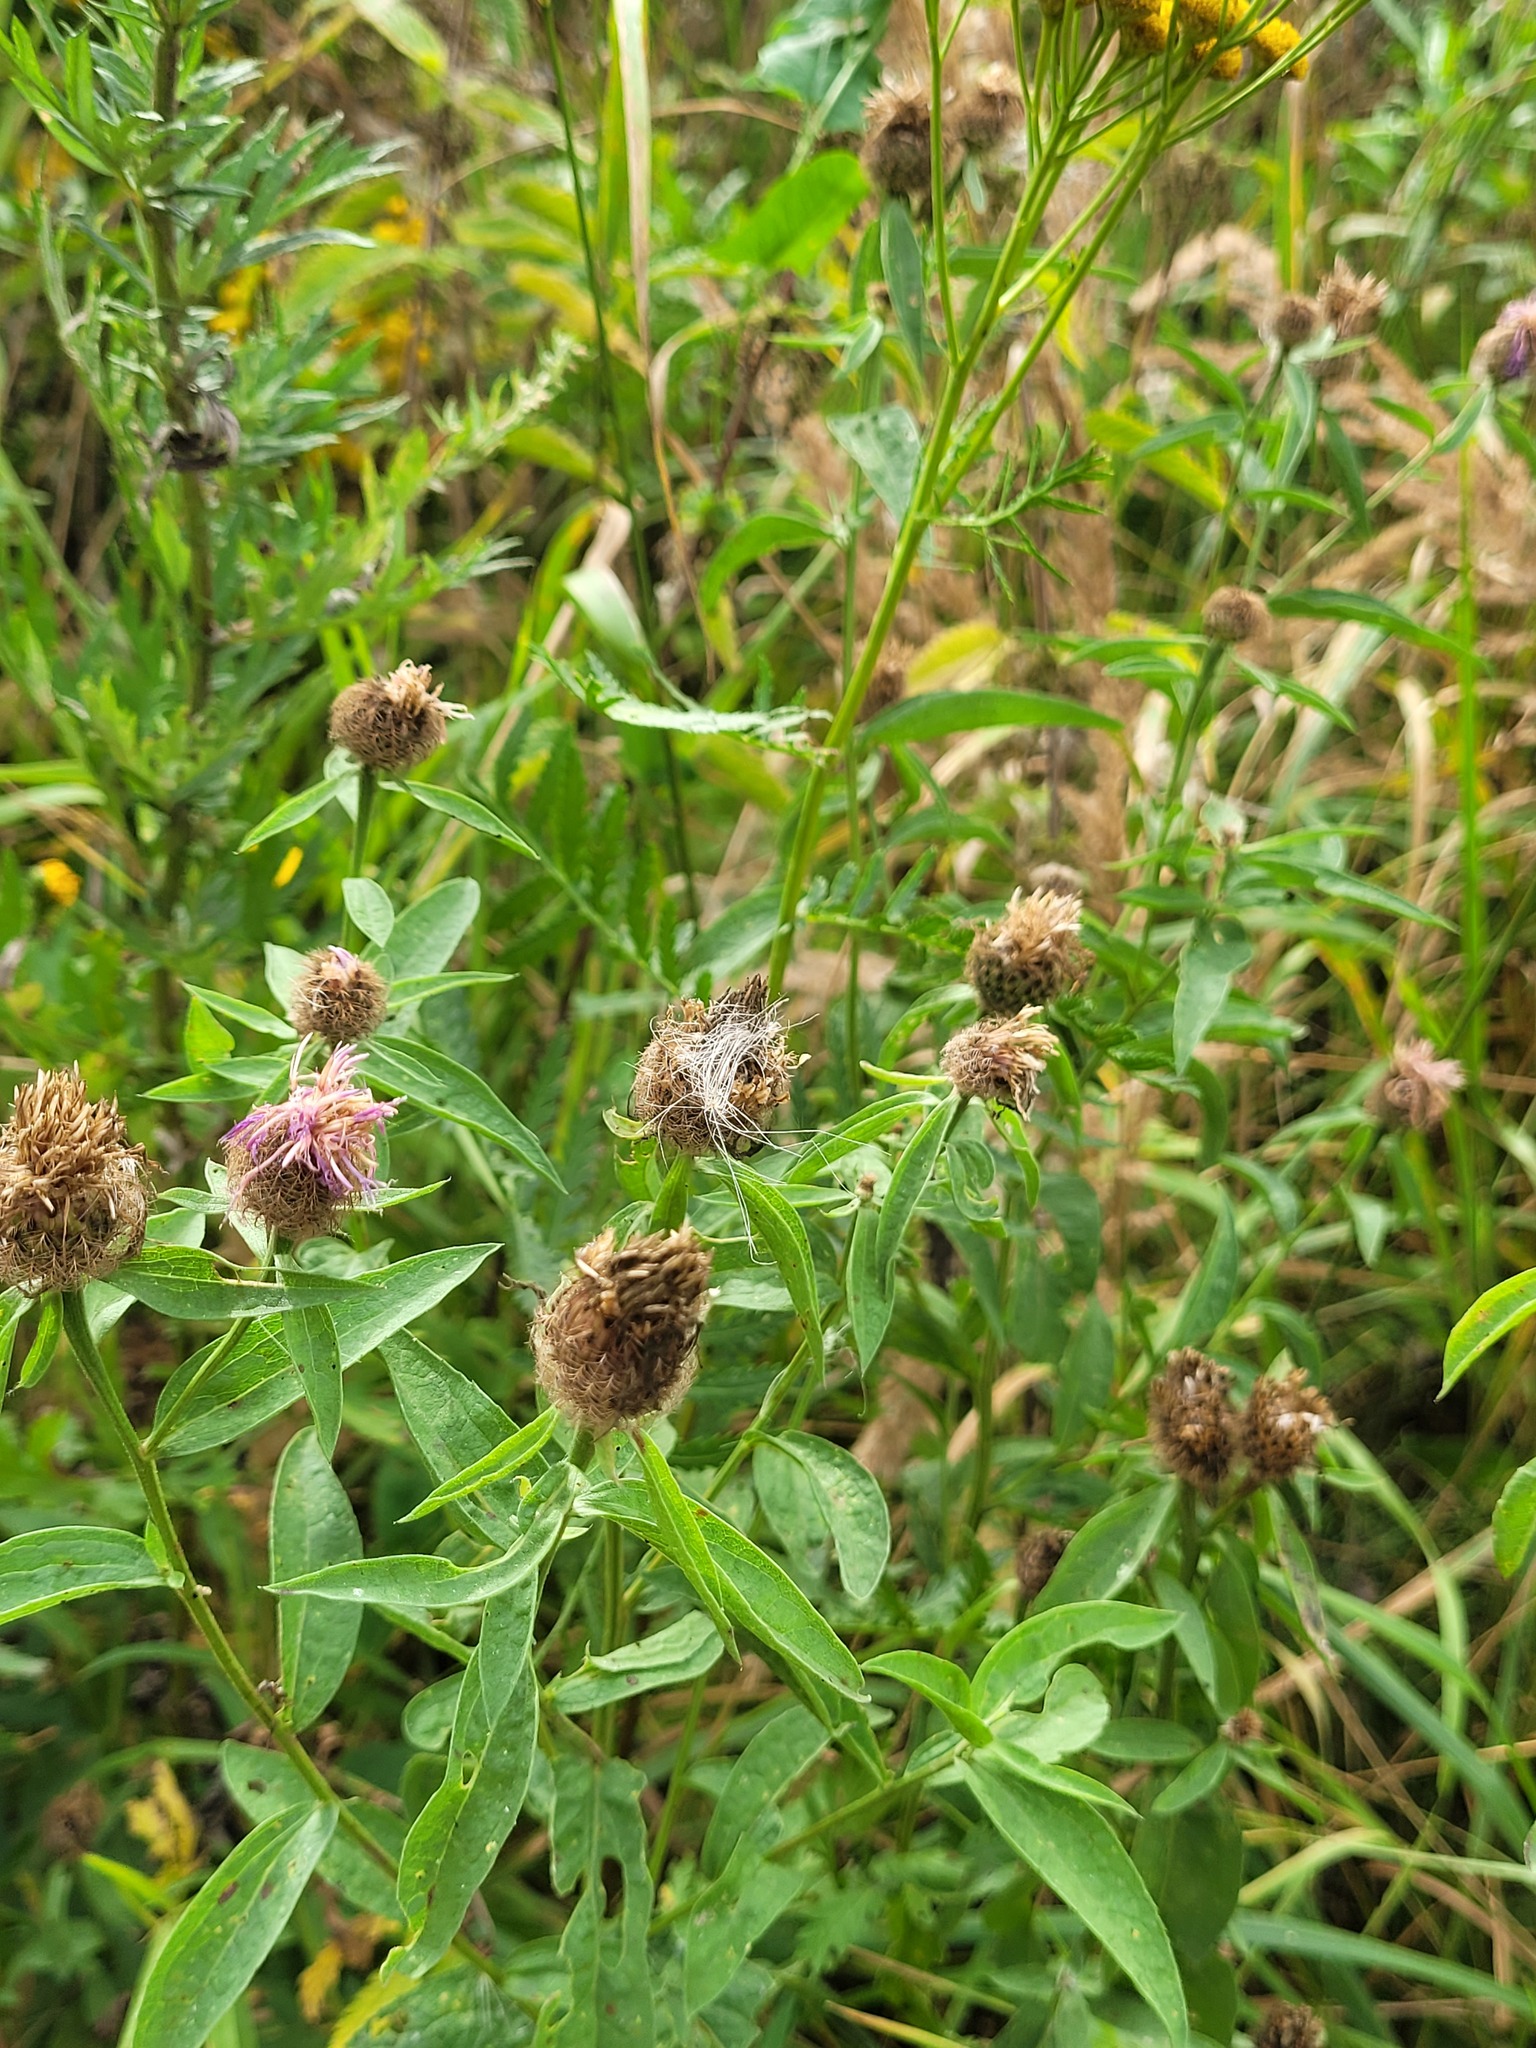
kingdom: Plantae
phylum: Tracheophyta
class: Magnoliopsida
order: Asterales
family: Asteraceae
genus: Centaurea
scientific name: Centaurea pseudophrygia
